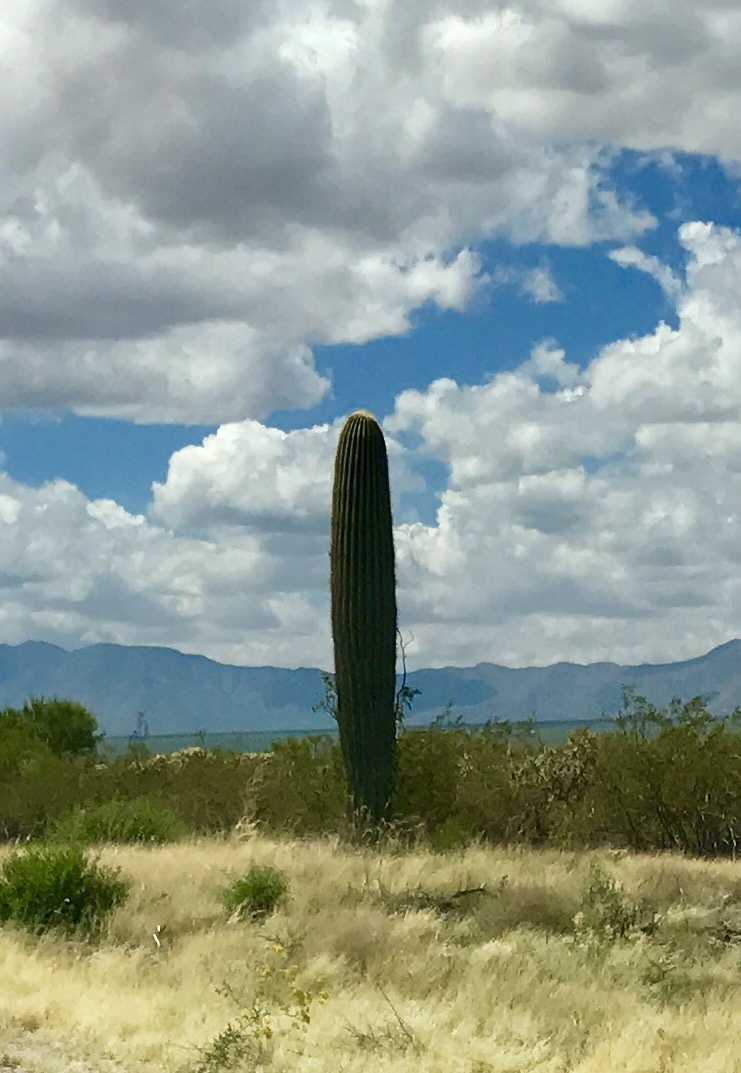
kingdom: Plantae
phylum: Tracheophyta
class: Magnoliopsida
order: Caryophyllales
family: Cactaceae
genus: Carnegiea
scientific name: Carnegiea gigantea
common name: Saguaro
